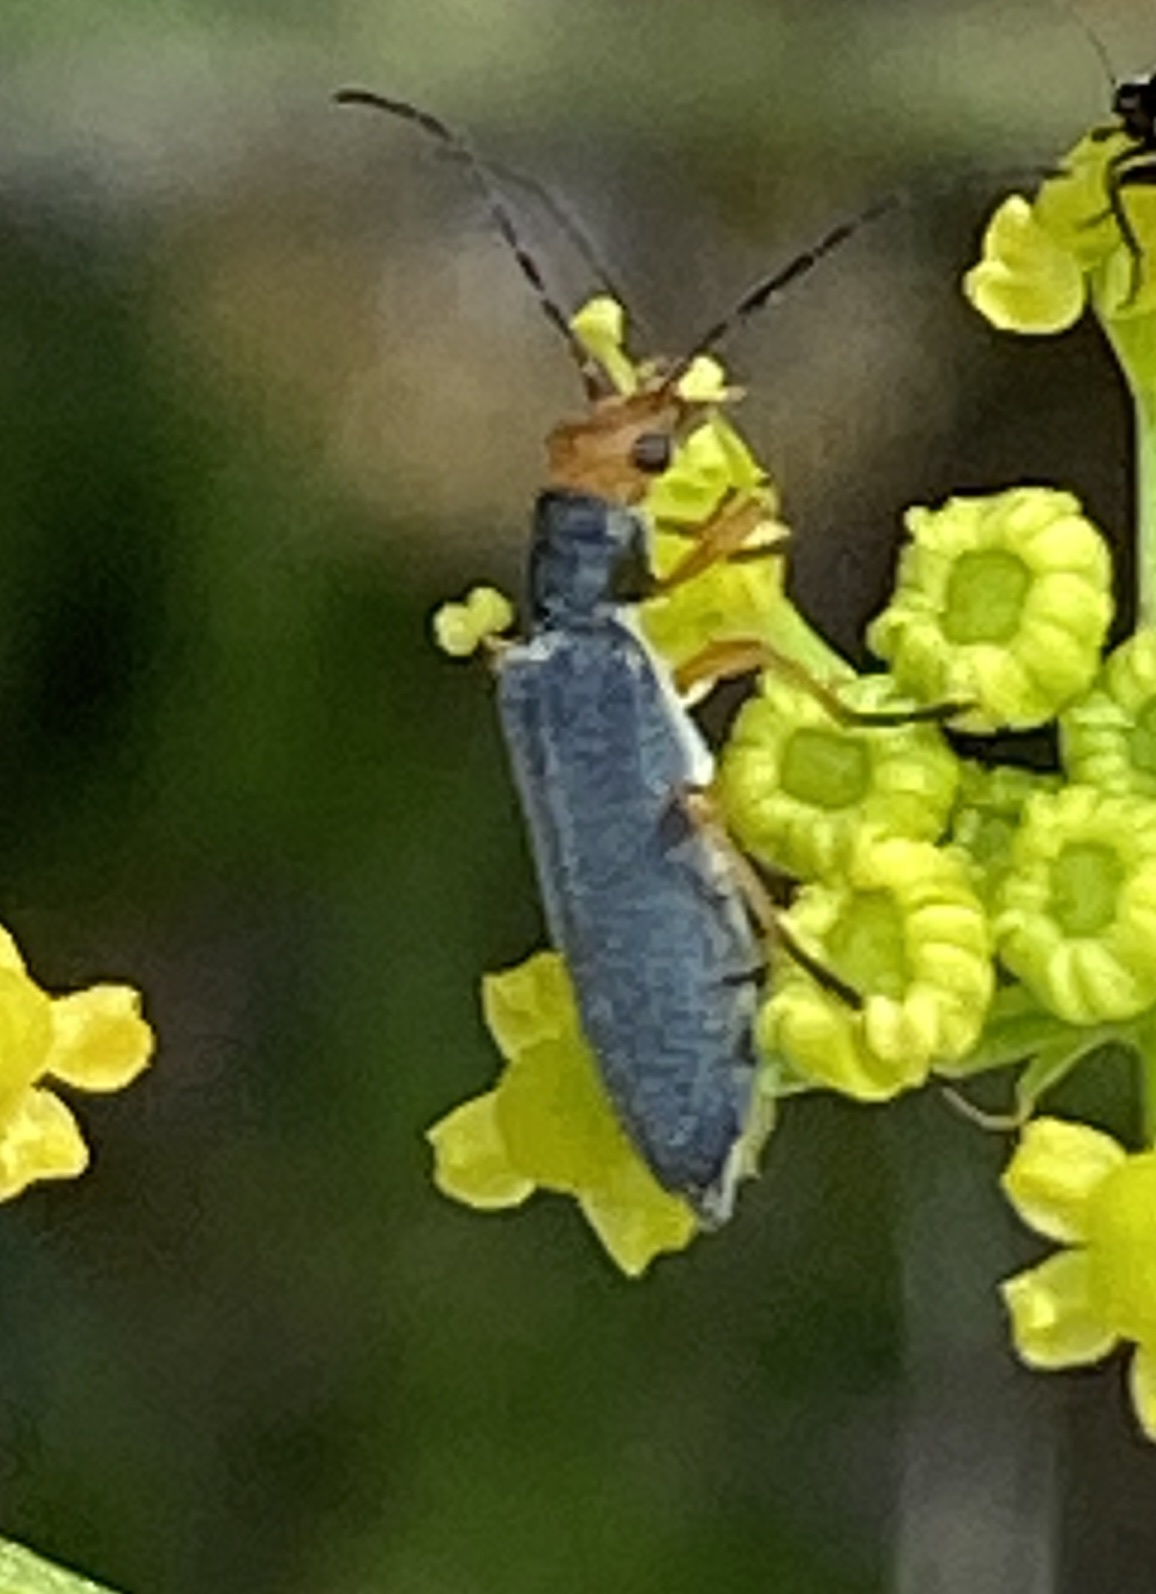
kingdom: Animalia
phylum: Arthropoda
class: Insecta
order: Coleoptera
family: Oedemeridae
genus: Melananthia
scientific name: Melananthia
